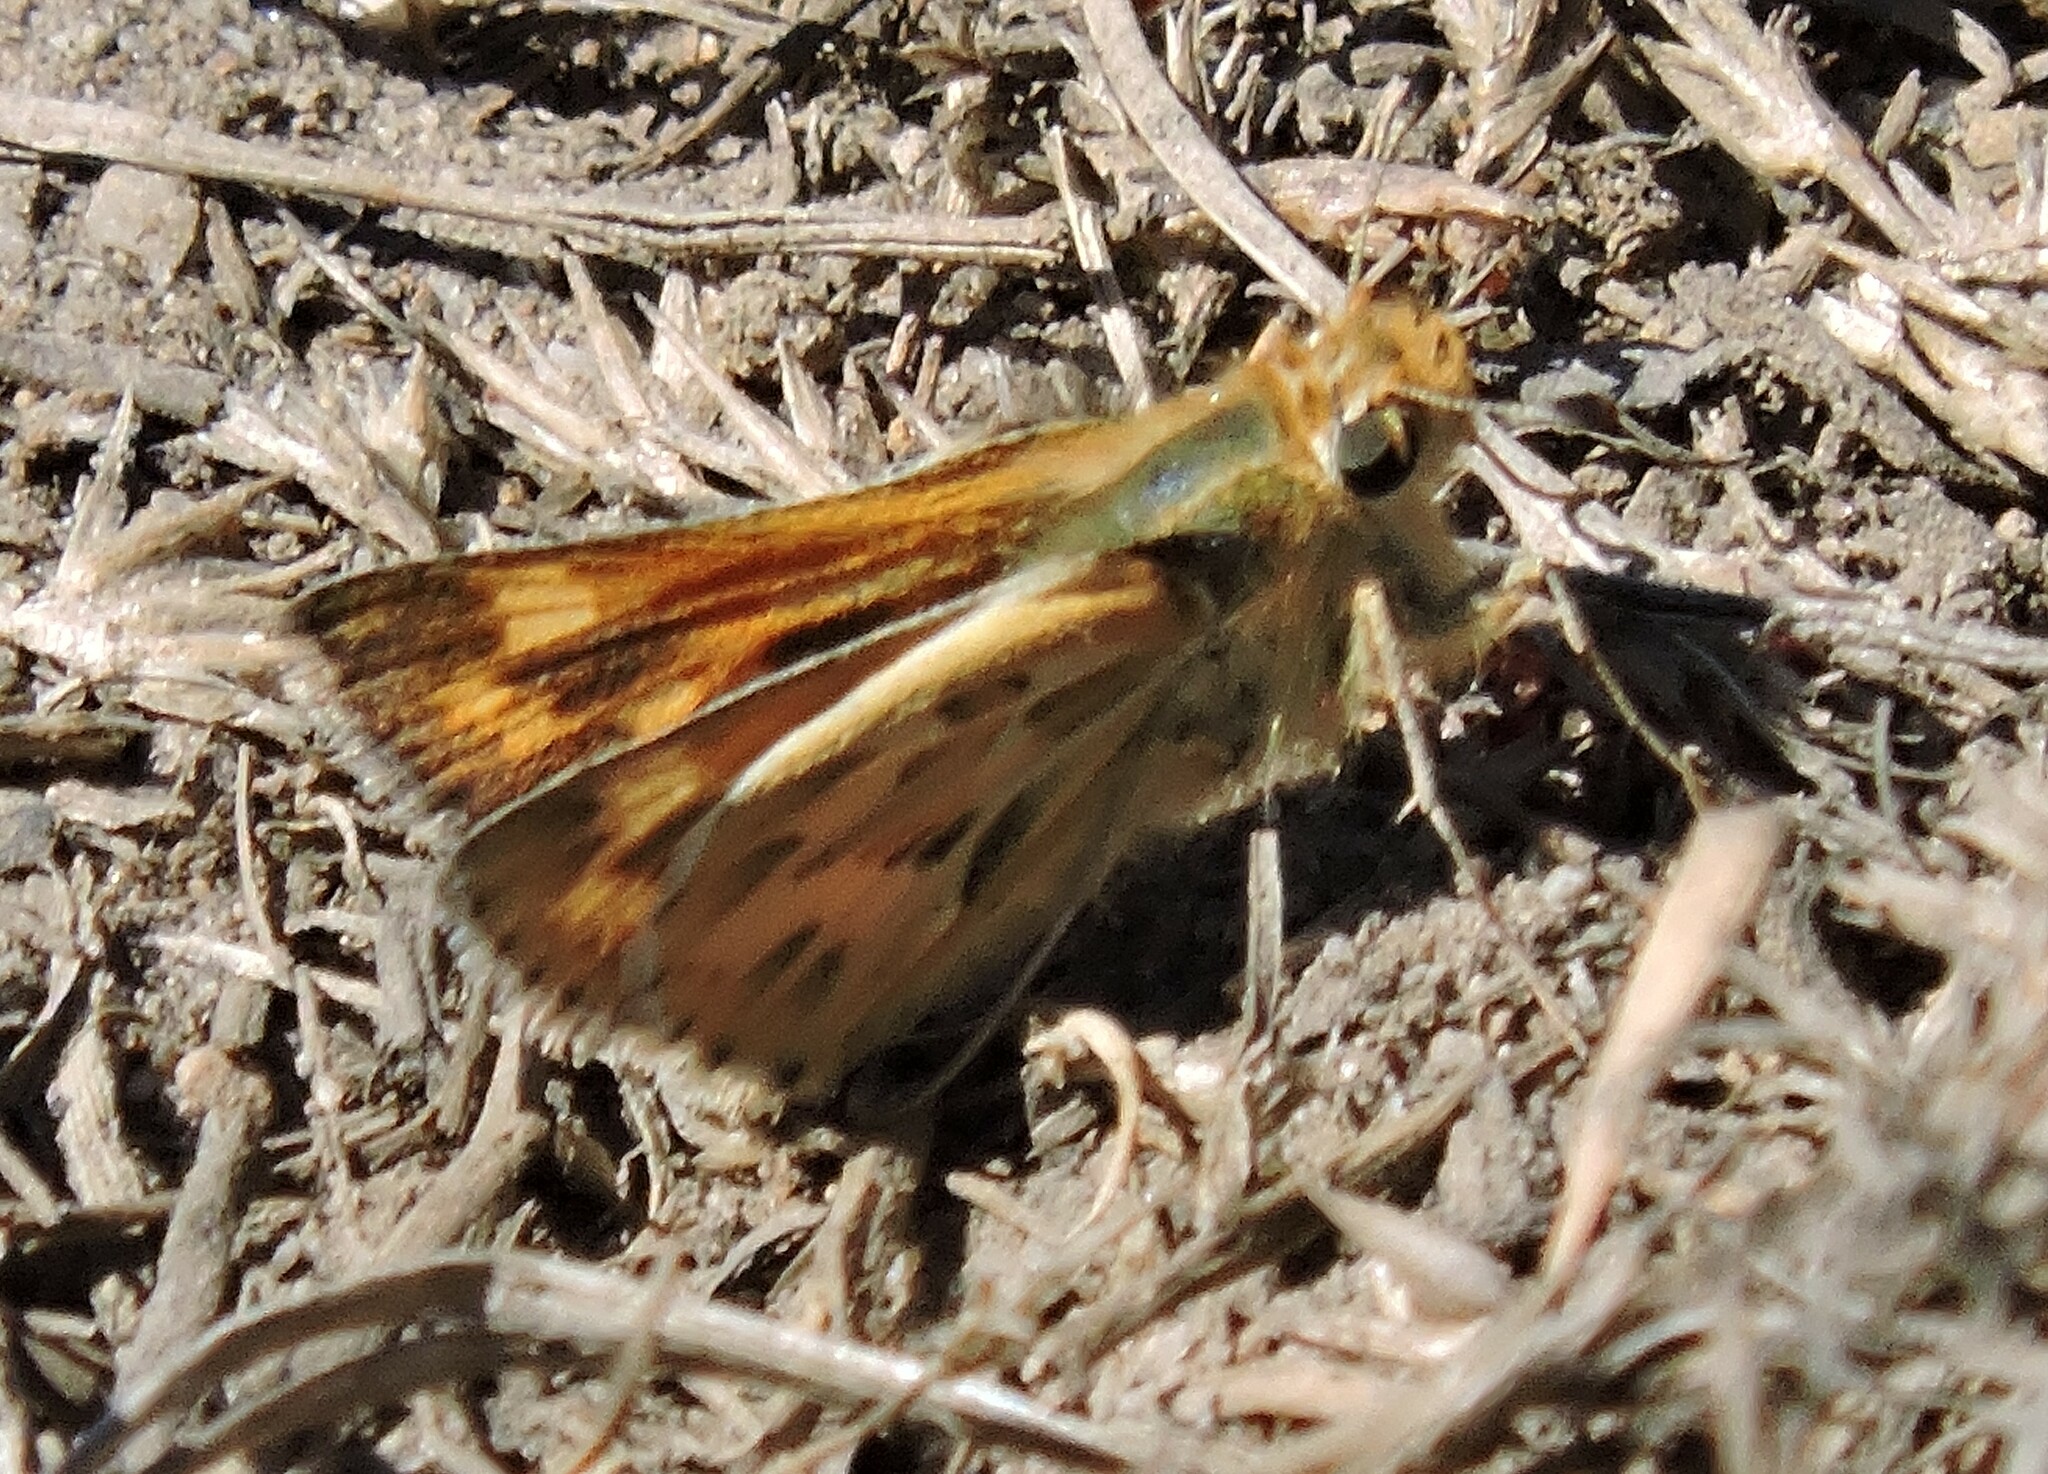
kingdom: Animalia
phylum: Arthropoda
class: Insecta
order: Lepidoptera
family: Hesperiidae
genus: Polites
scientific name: Polites sabuleti
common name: Sandhill skipper
